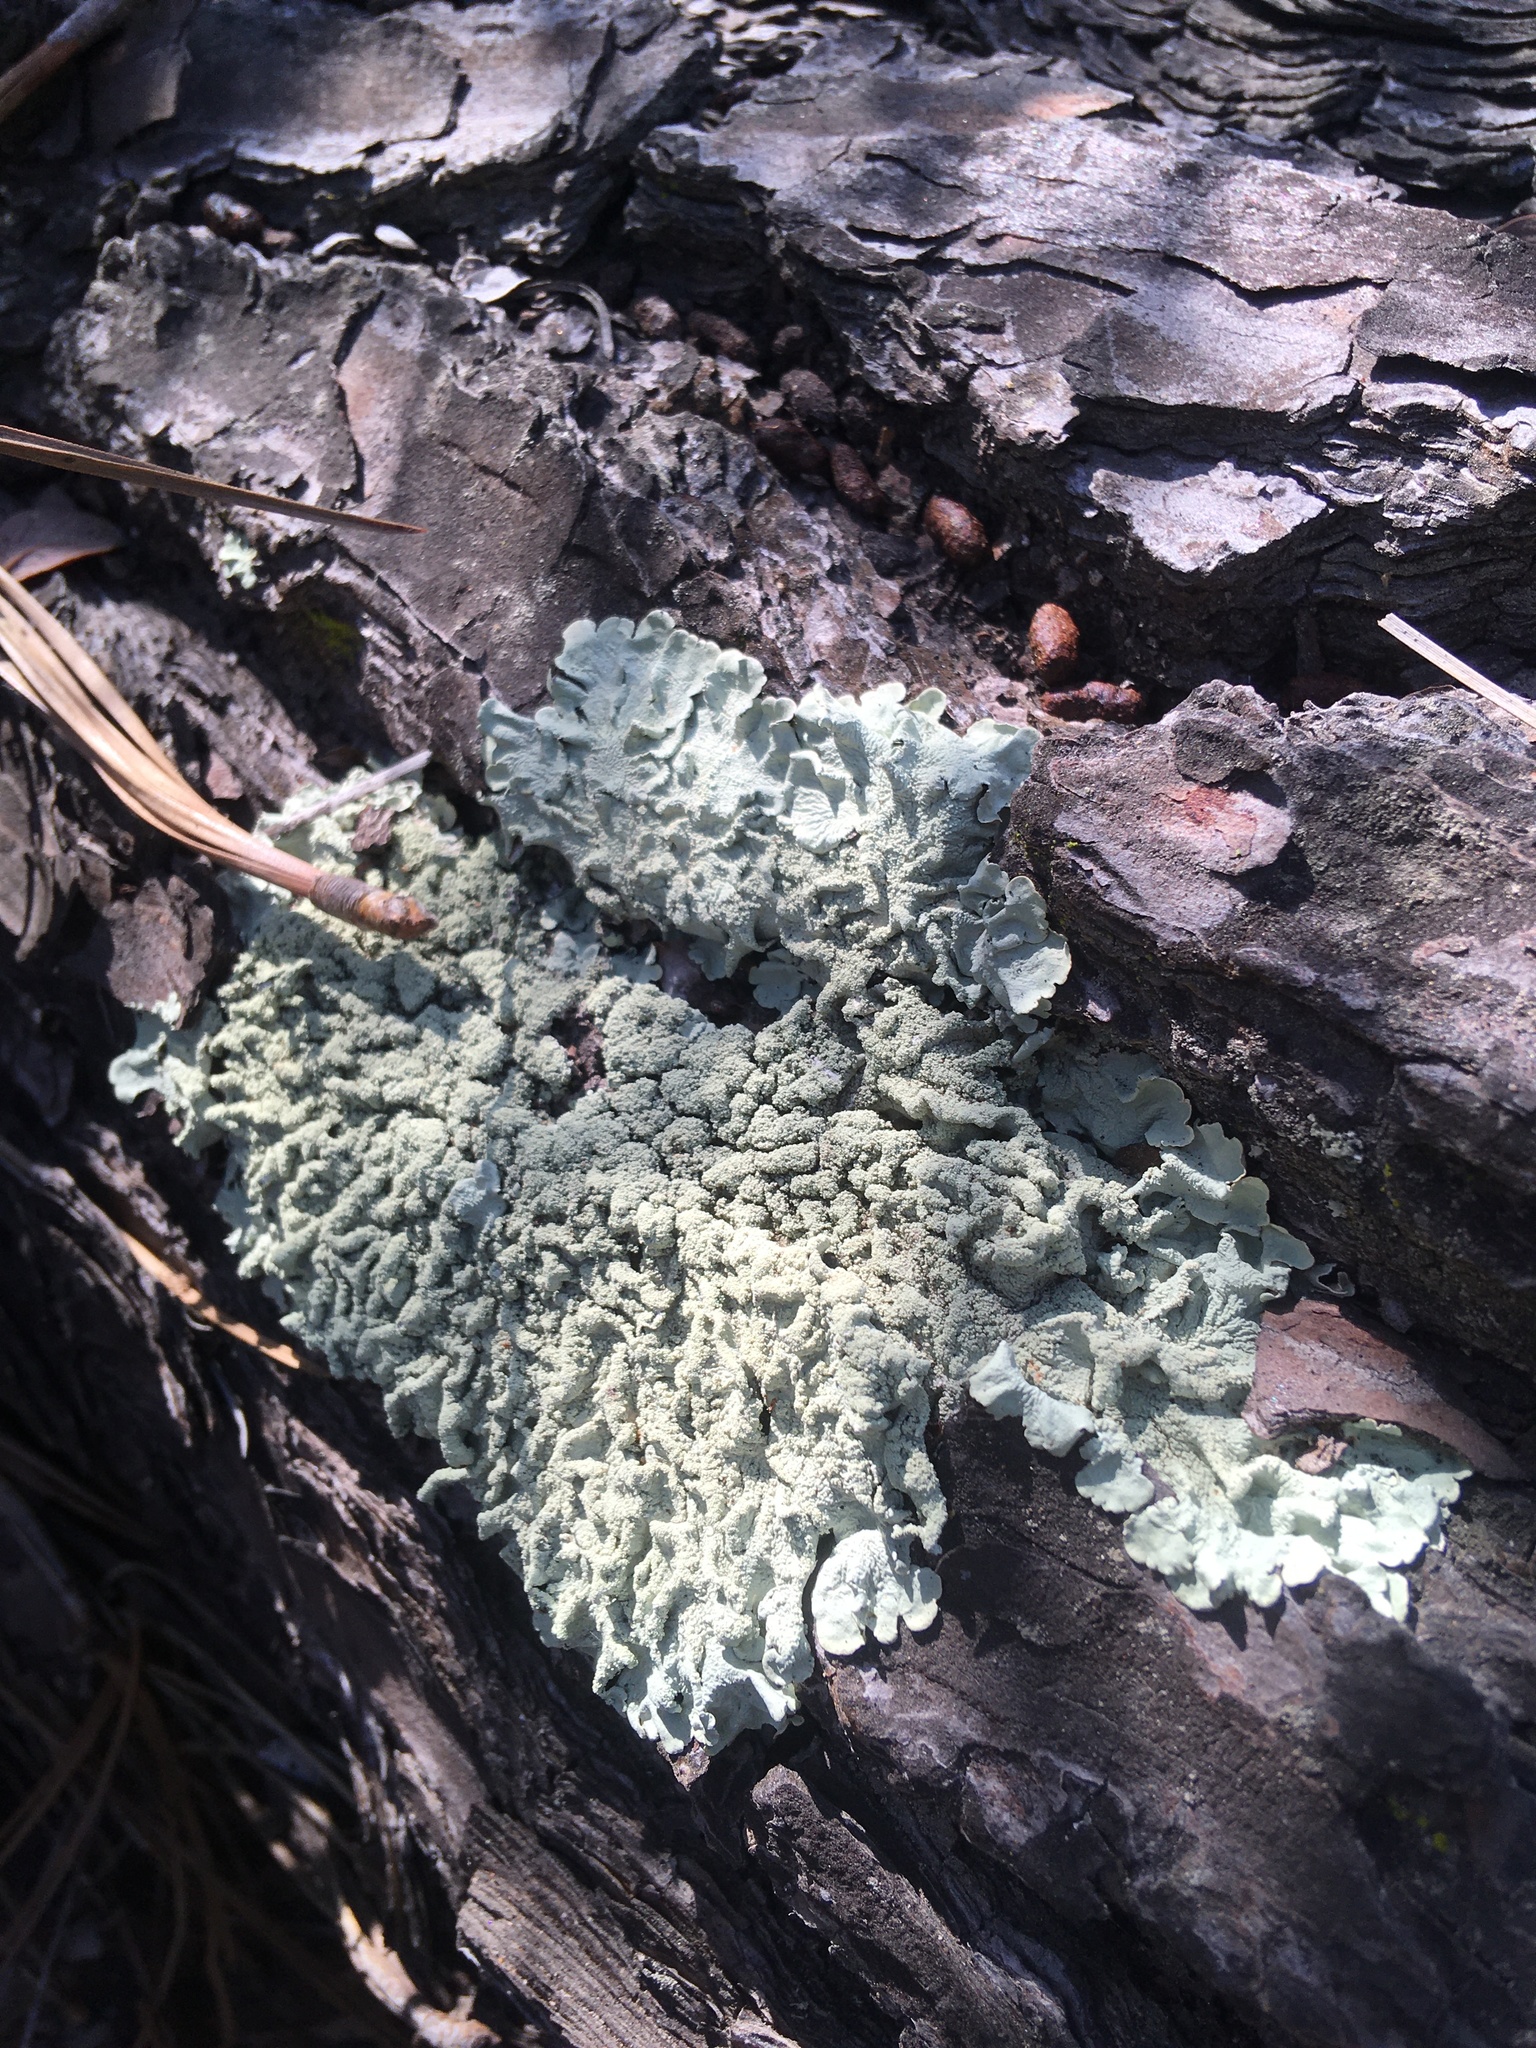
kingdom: Fungi
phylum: Ascomycota
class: Lecanoromycetes
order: Lecanorales
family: Parmeliaceae
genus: Flavoparmelia
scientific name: Flavoparmelia caperata
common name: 40-mile per hour lichen
